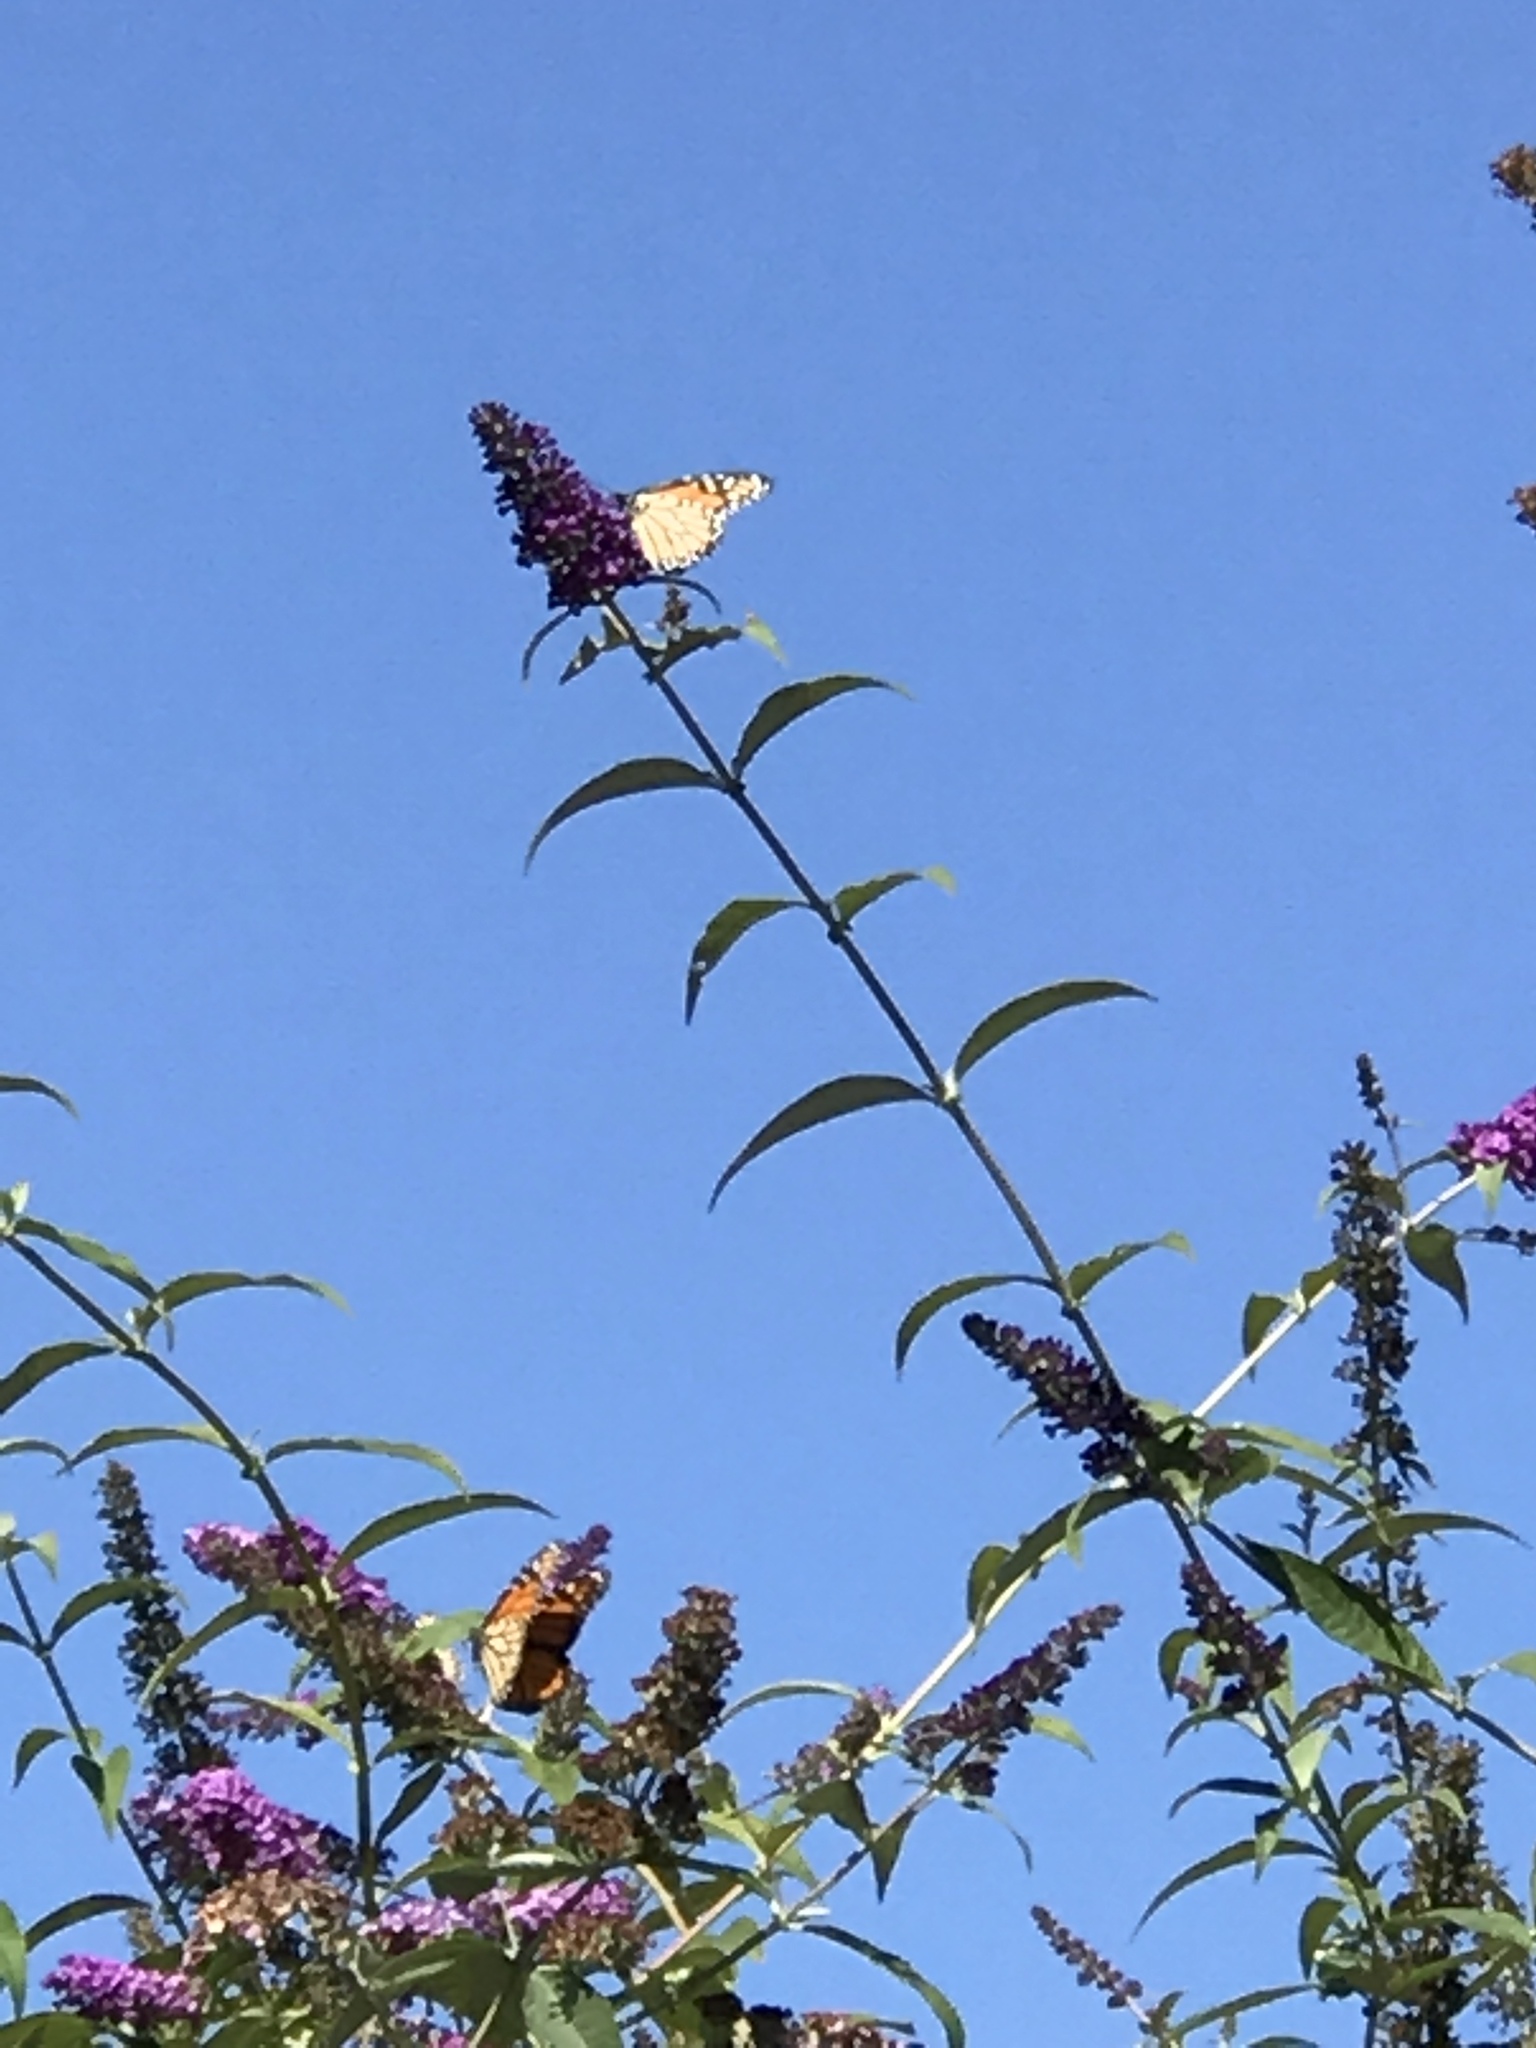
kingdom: Animalia
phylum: Arthropoda
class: Insecta
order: Lepidoptera
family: Nymphalidae
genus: Danaus
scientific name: Danaus plexippus
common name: Monarch
